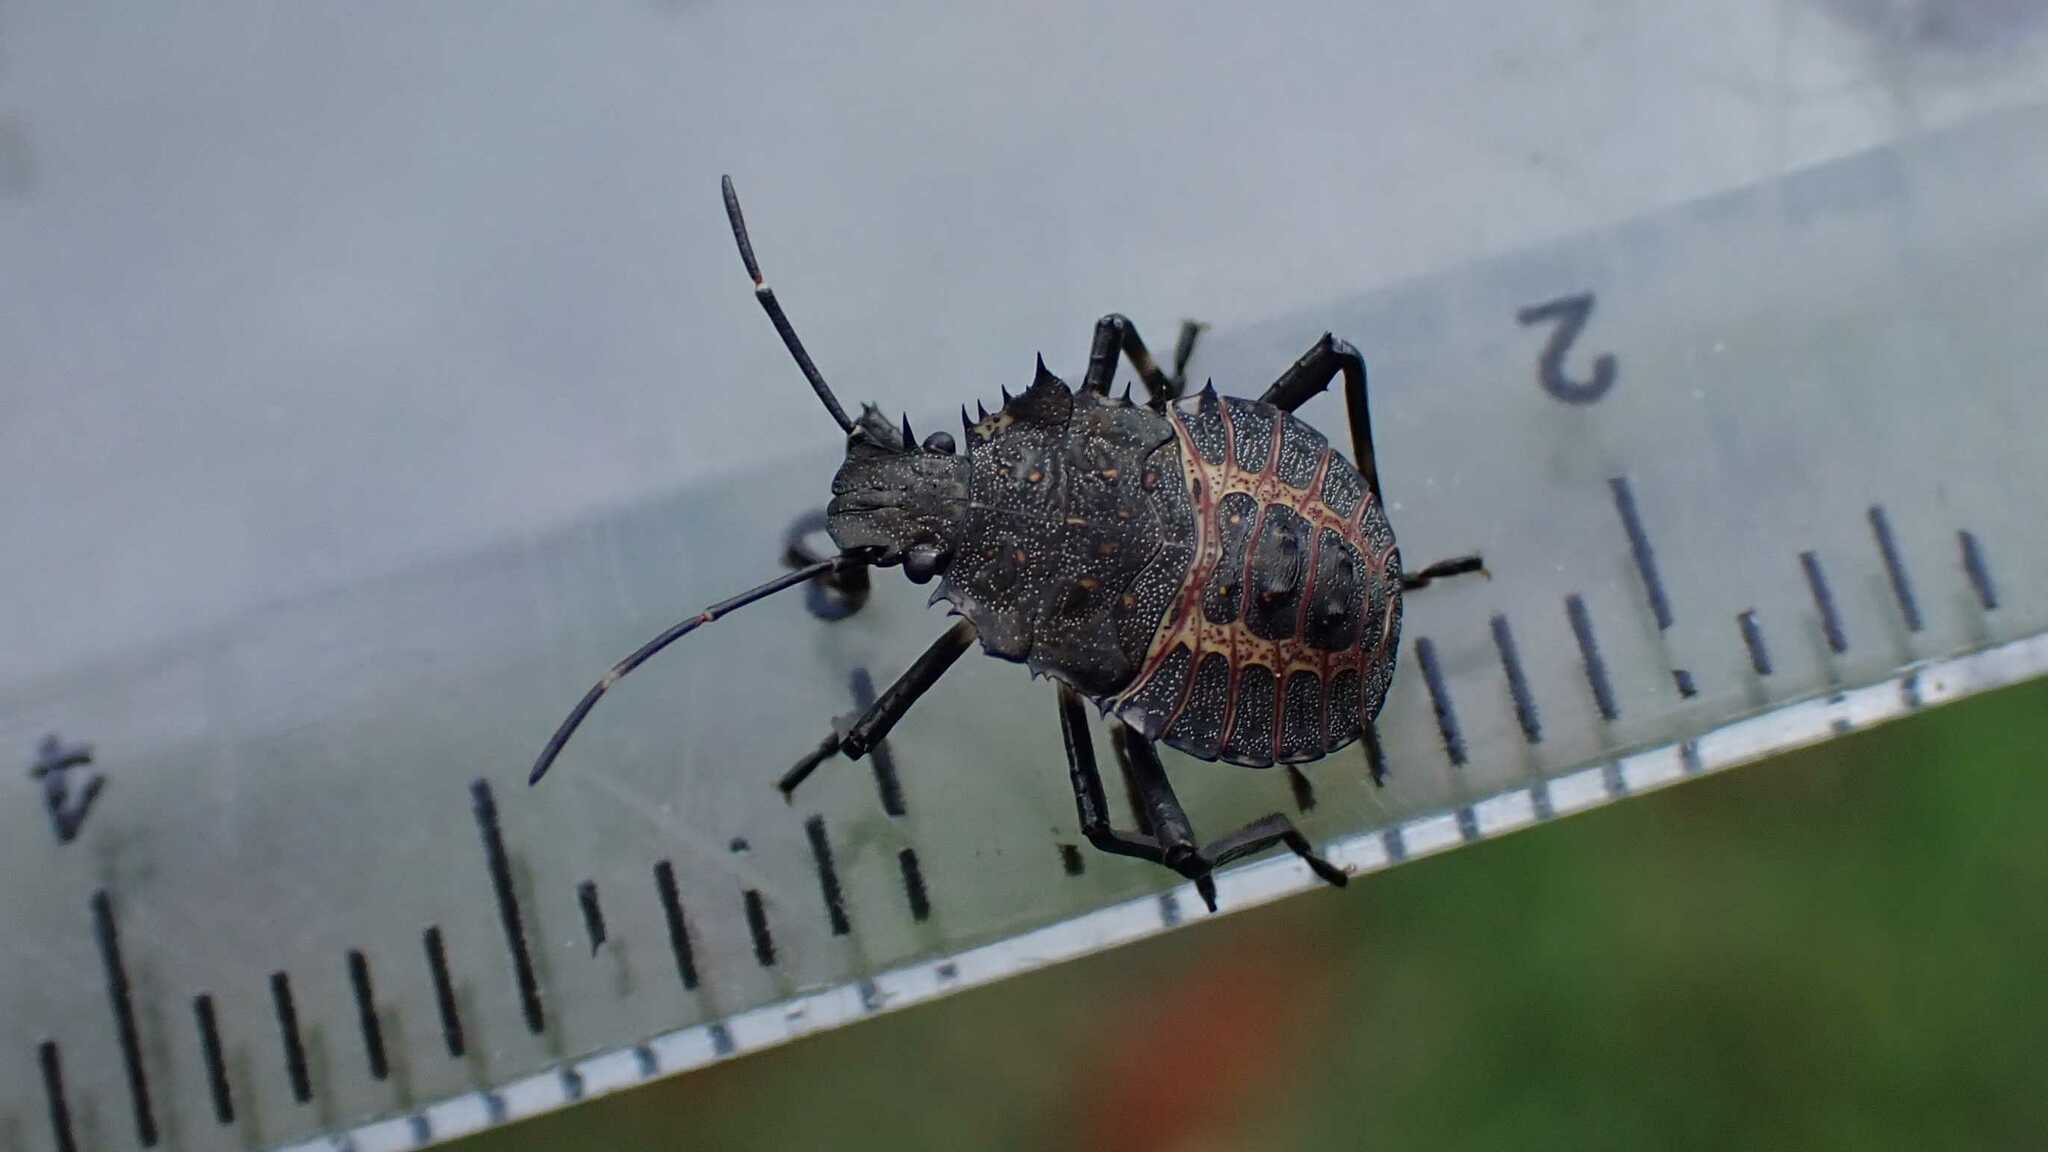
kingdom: Animalia
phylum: Arthropoda
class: Insecta
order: Hemiptera
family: Pentatomidae
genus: Halyomorpha
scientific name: Halyomorpha halys
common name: Brown marmorated stink bug
